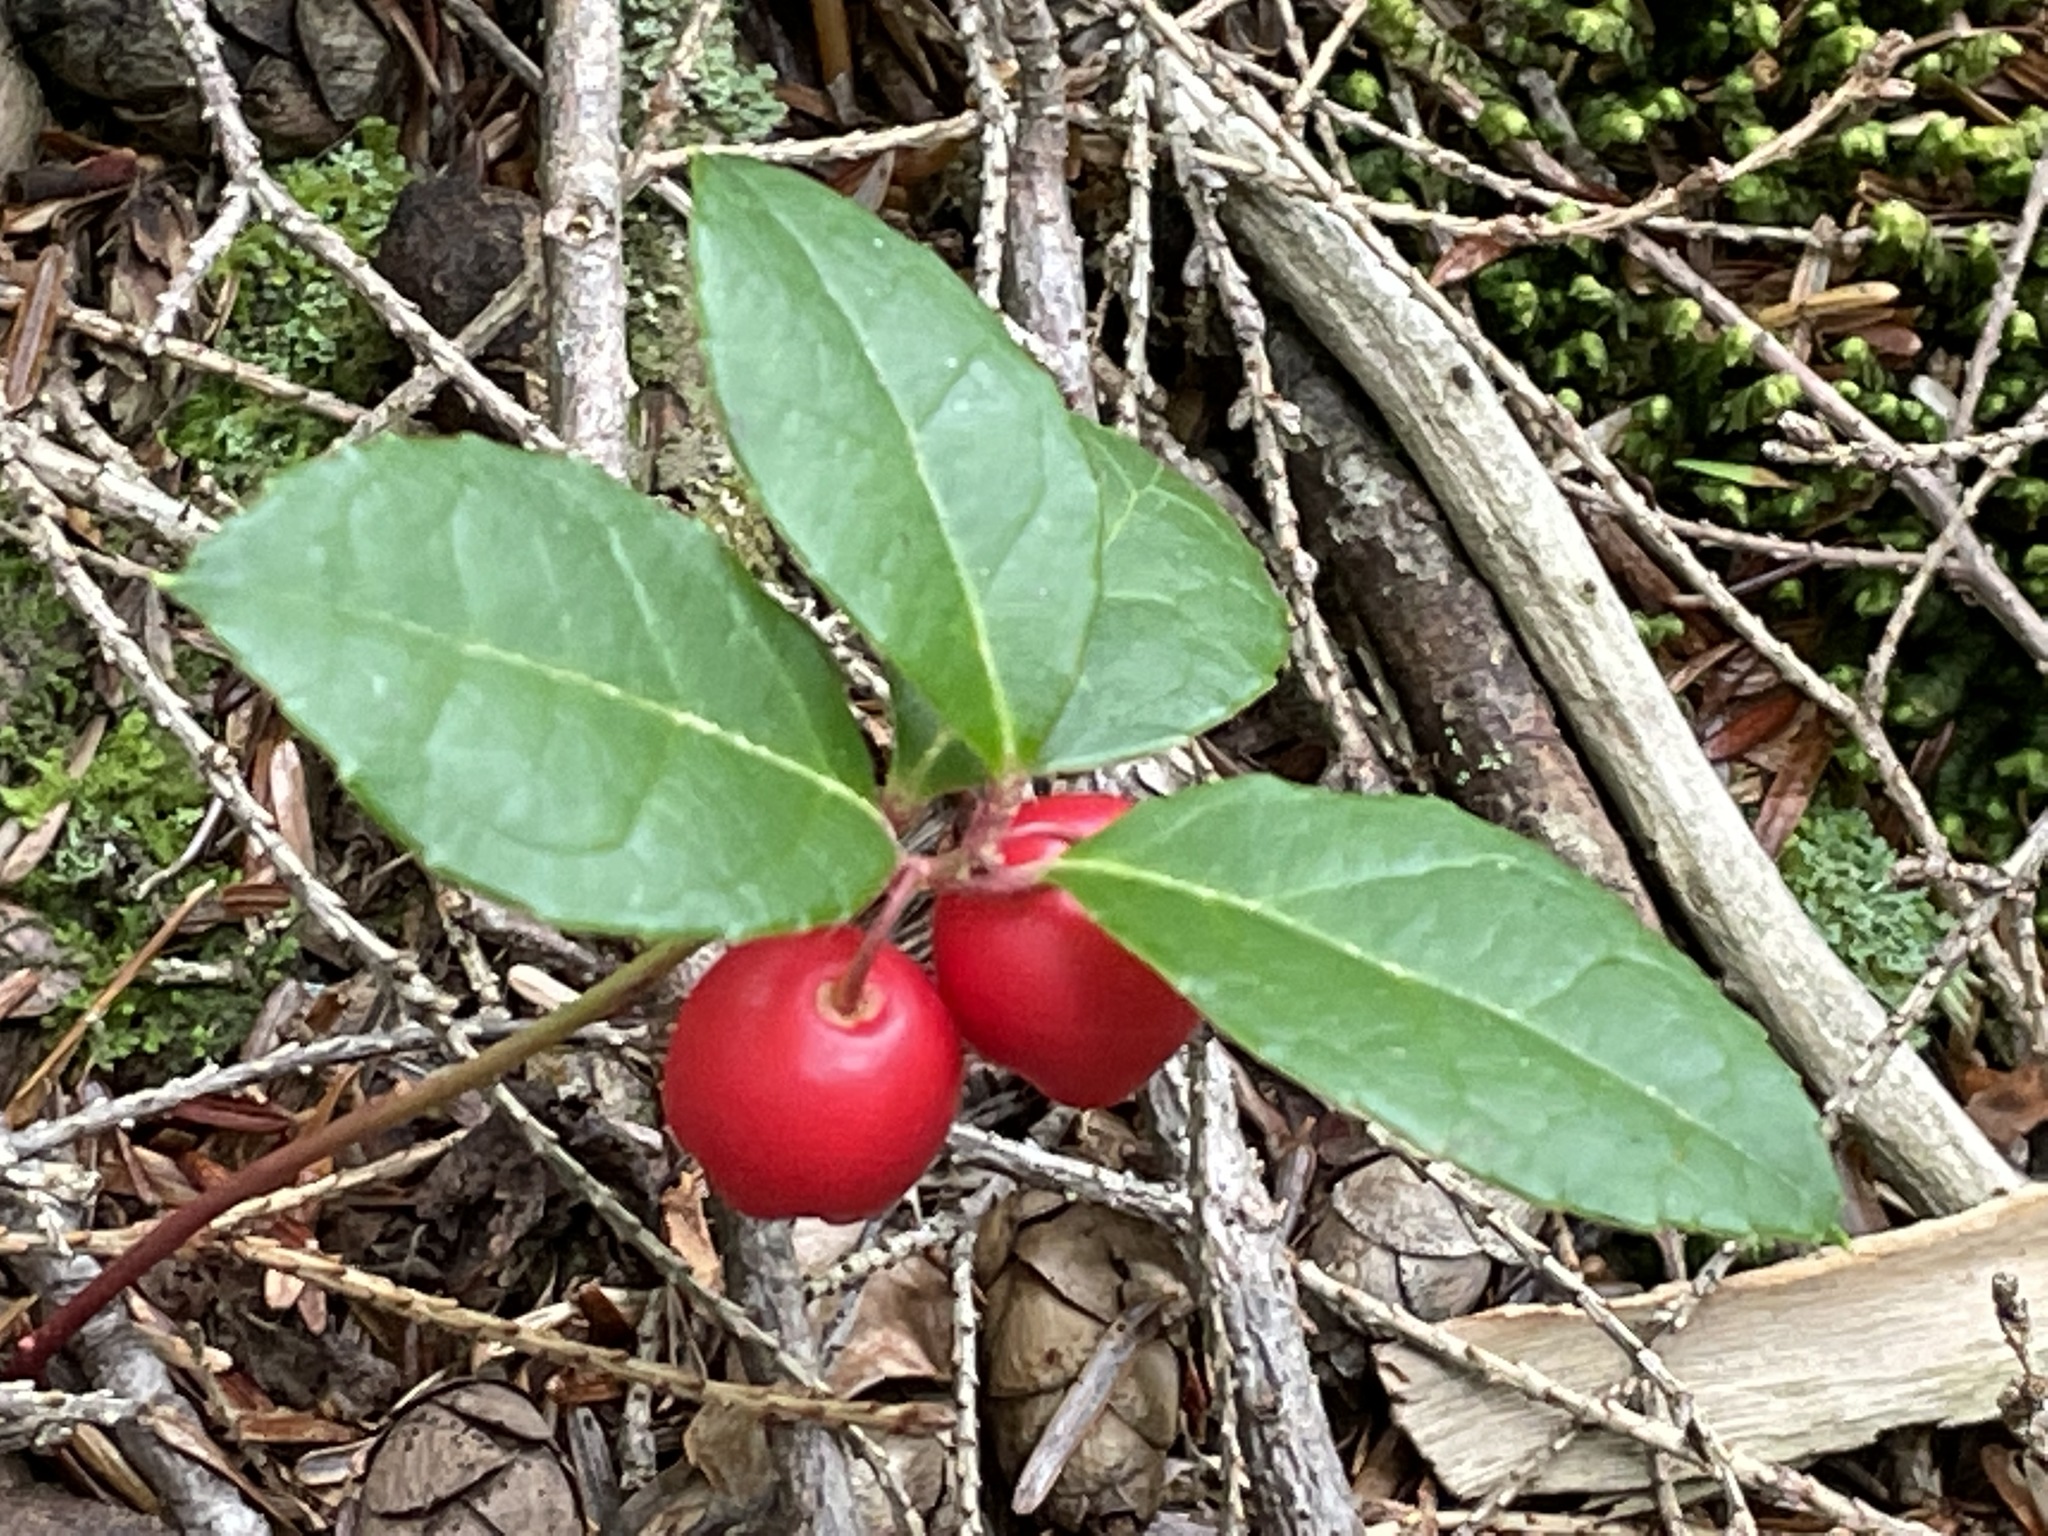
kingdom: Plantae
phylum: Tracheophyta
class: Magnoliopsida
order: Ericales
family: Ericaceae
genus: Gaultheria
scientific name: Gaultheria procumbens
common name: Checkerberry
